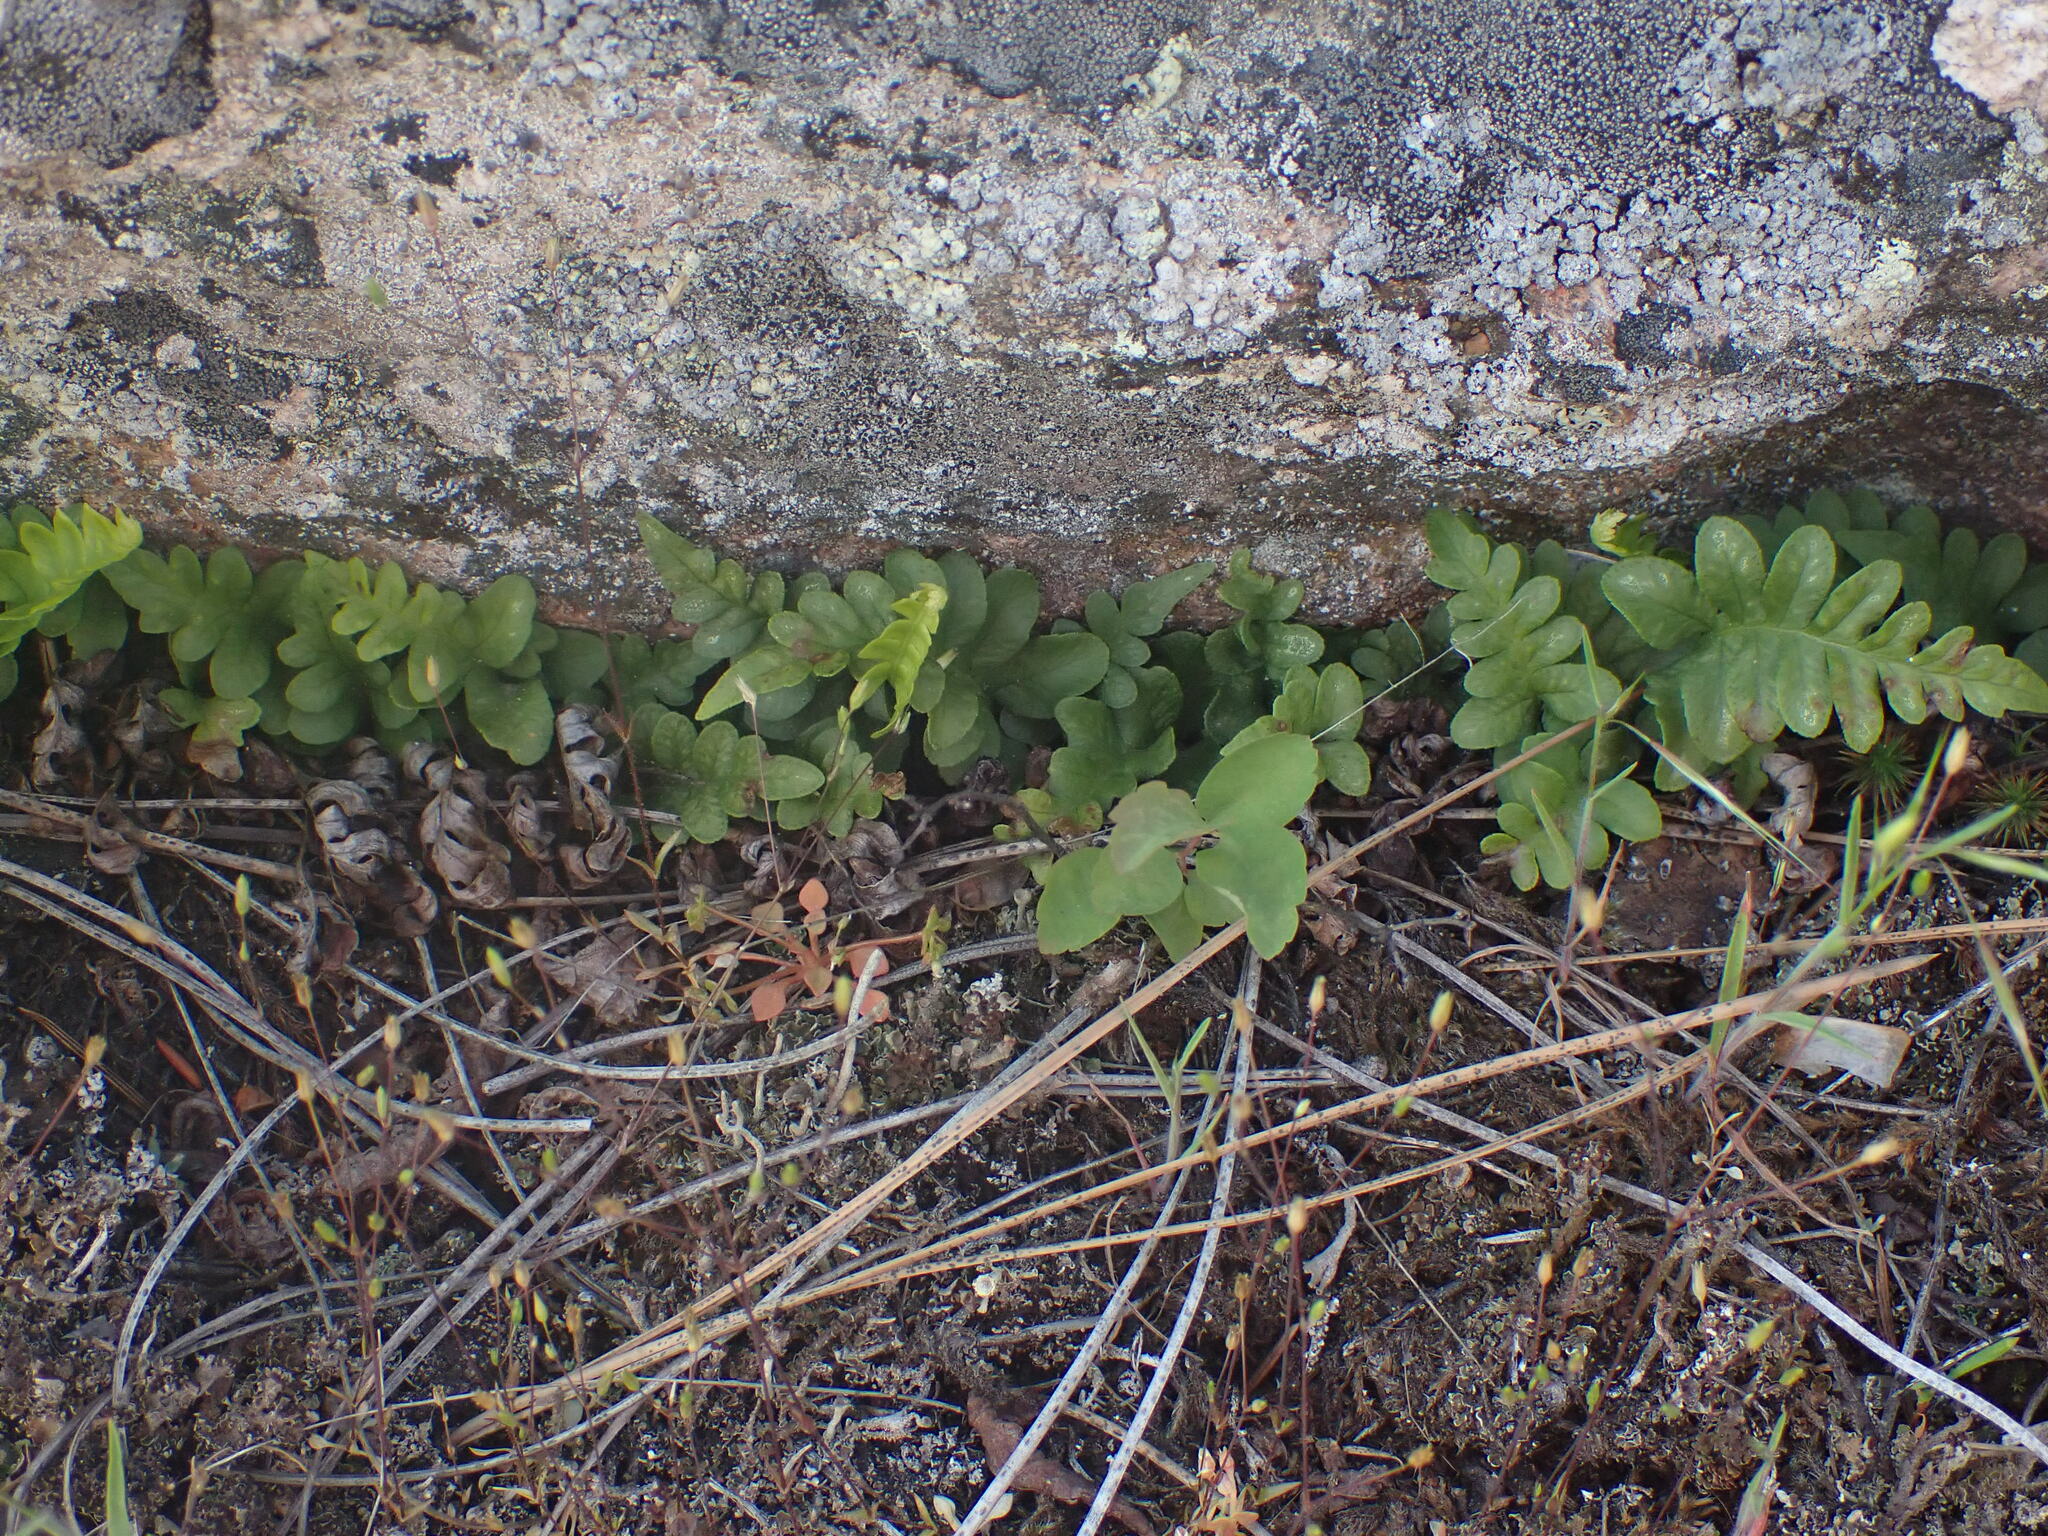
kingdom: Plantae
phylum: Tracheophyta
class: Polypodiopsida
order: Polypodiales
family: Polypodiaceae
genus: Polypodium
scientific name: Polypodium hesperium
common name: Western polypody
